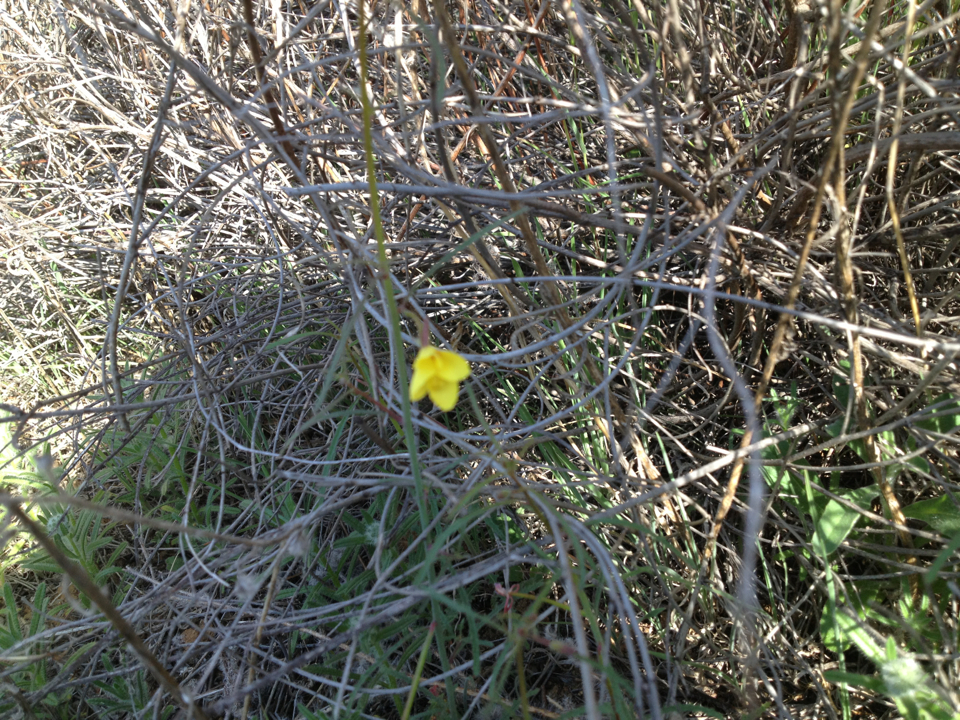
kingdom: Plantae
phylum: Tracheophyta
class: Magnoliopsida
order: Myrtales
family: Onagraceae
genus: Eulobus
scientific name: Eulobus californicus
